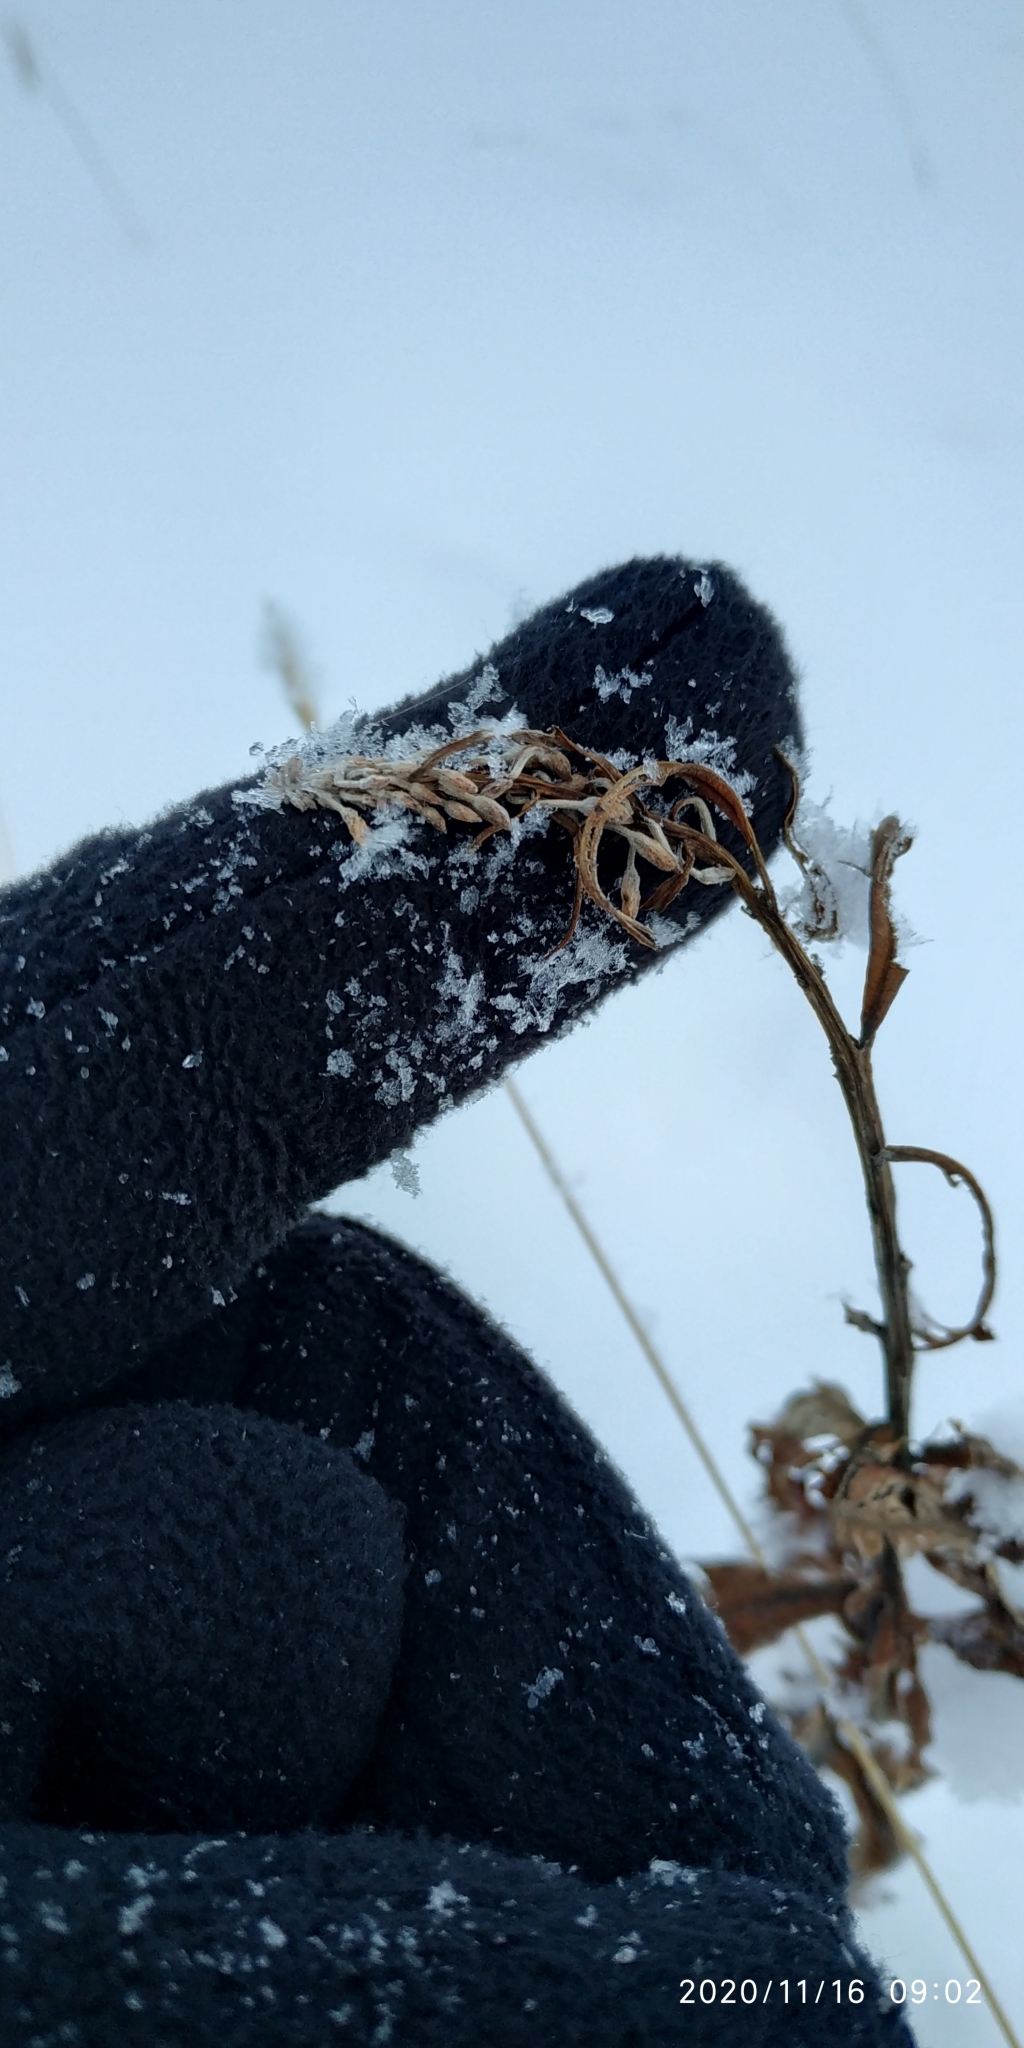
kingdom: Plantae
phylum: Tracheophyta
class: Magnoliopsida
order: Myrtales
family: Onagraceae
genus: Chamaenerion
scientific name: Chamaenerion angustifolium
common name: Fireweed
